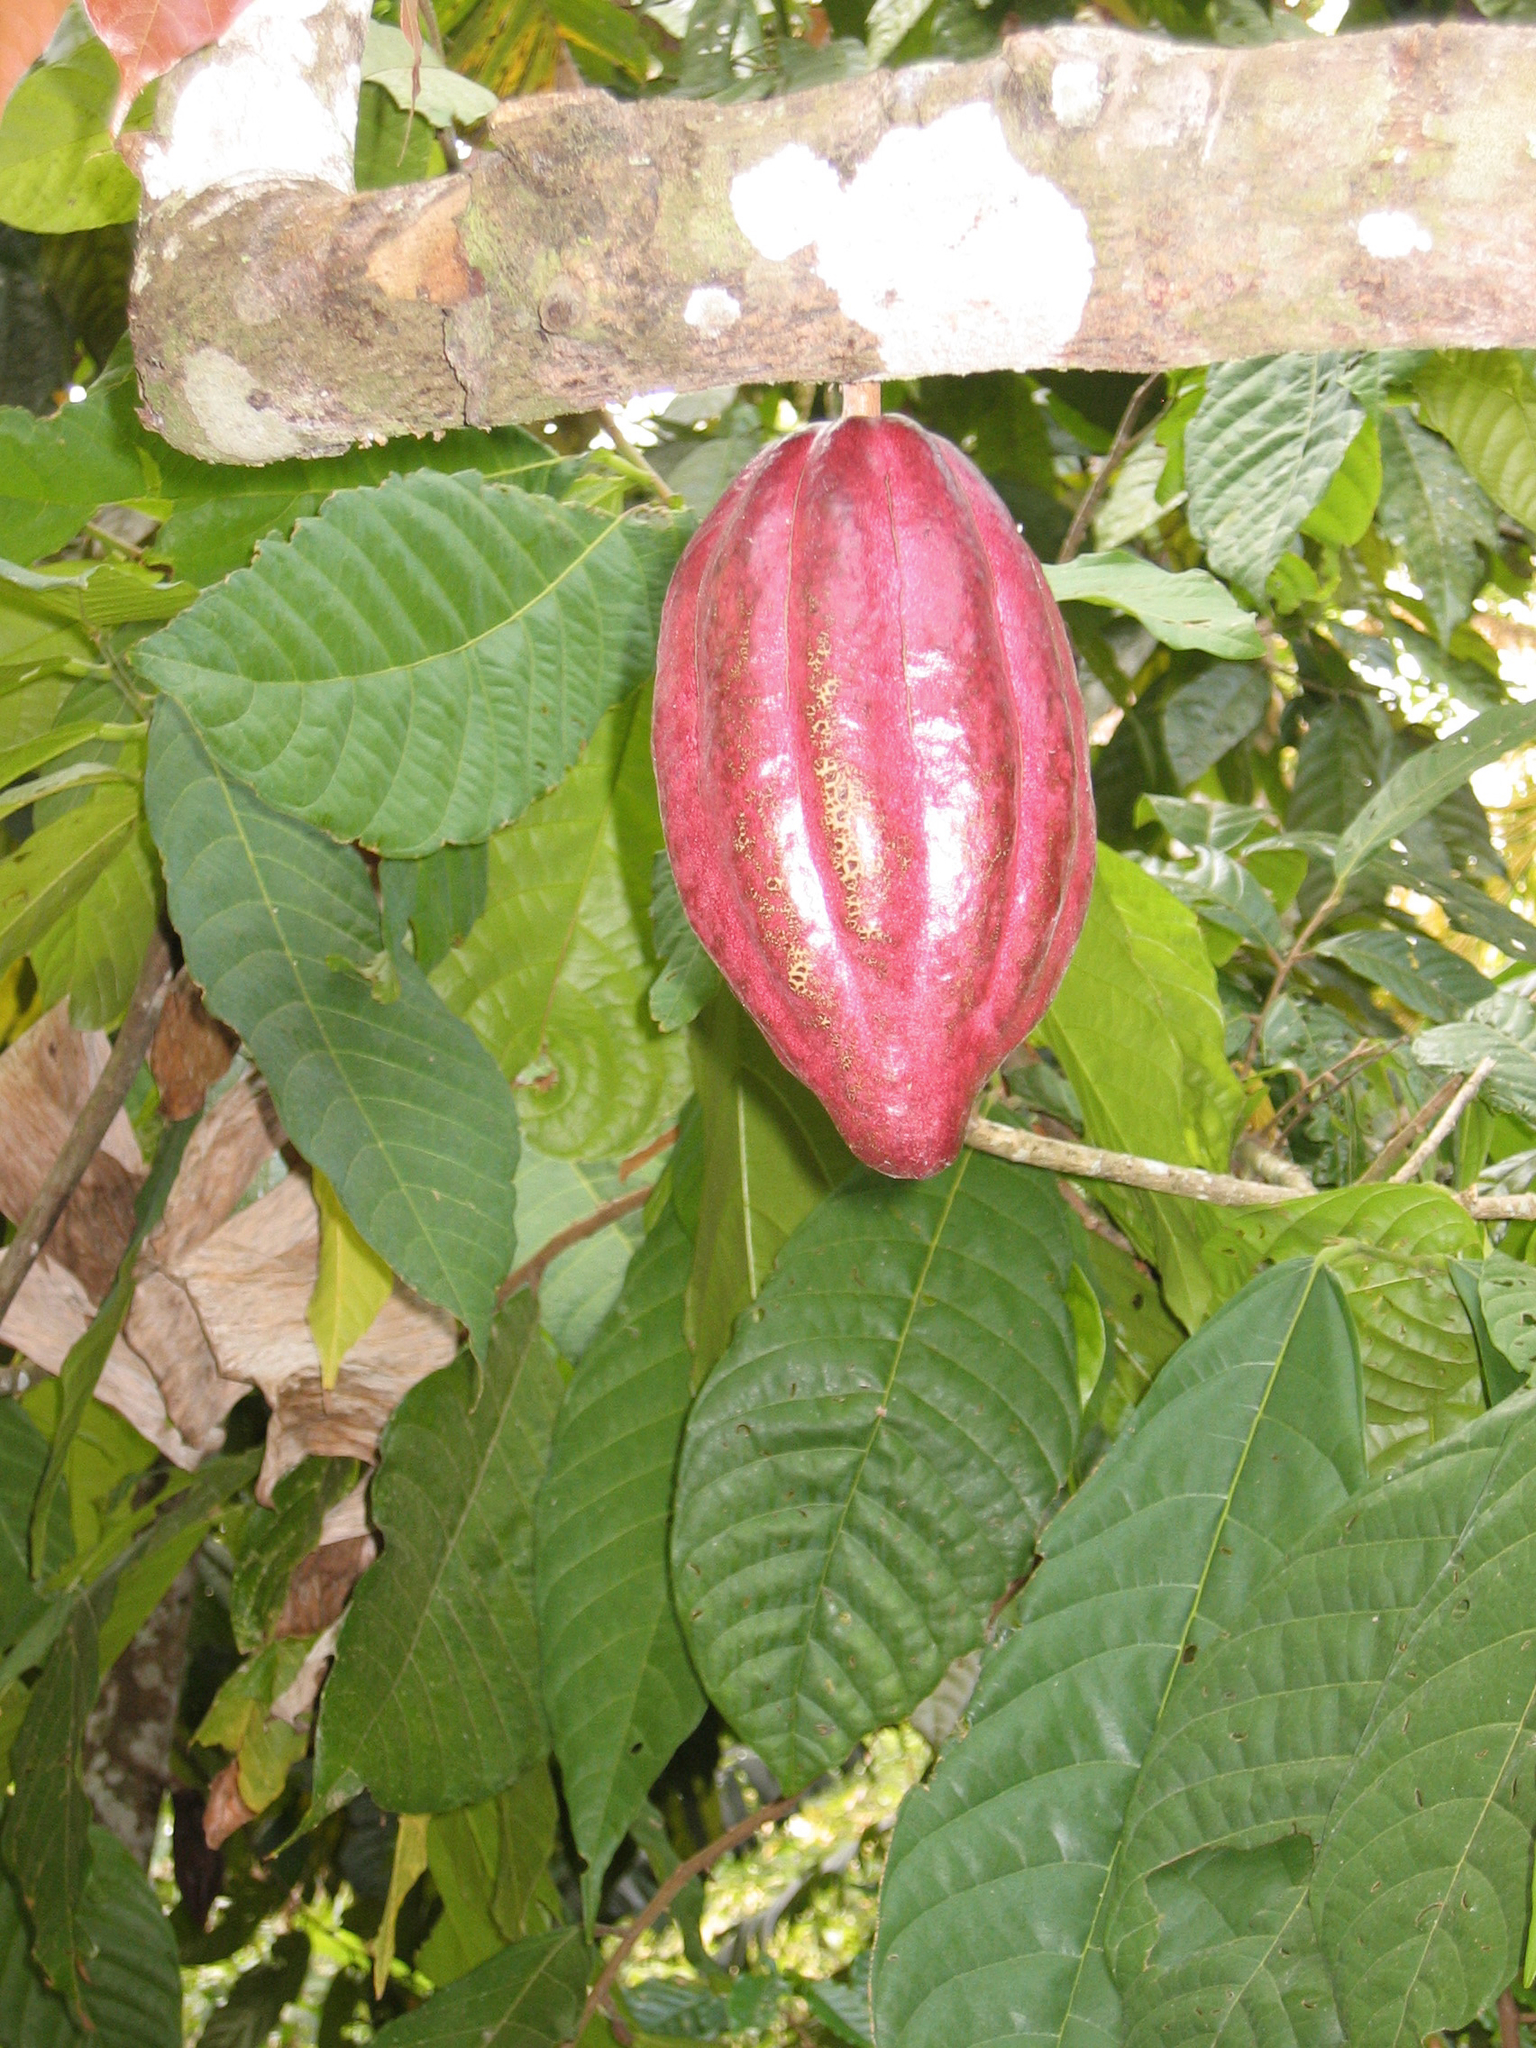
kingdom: Plantae
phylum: Tracheophyta
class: Magnoliopsida
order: Malvales
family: Malvaceae
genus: Theobroma
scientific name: Theobroma cacao
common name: Cocoa
